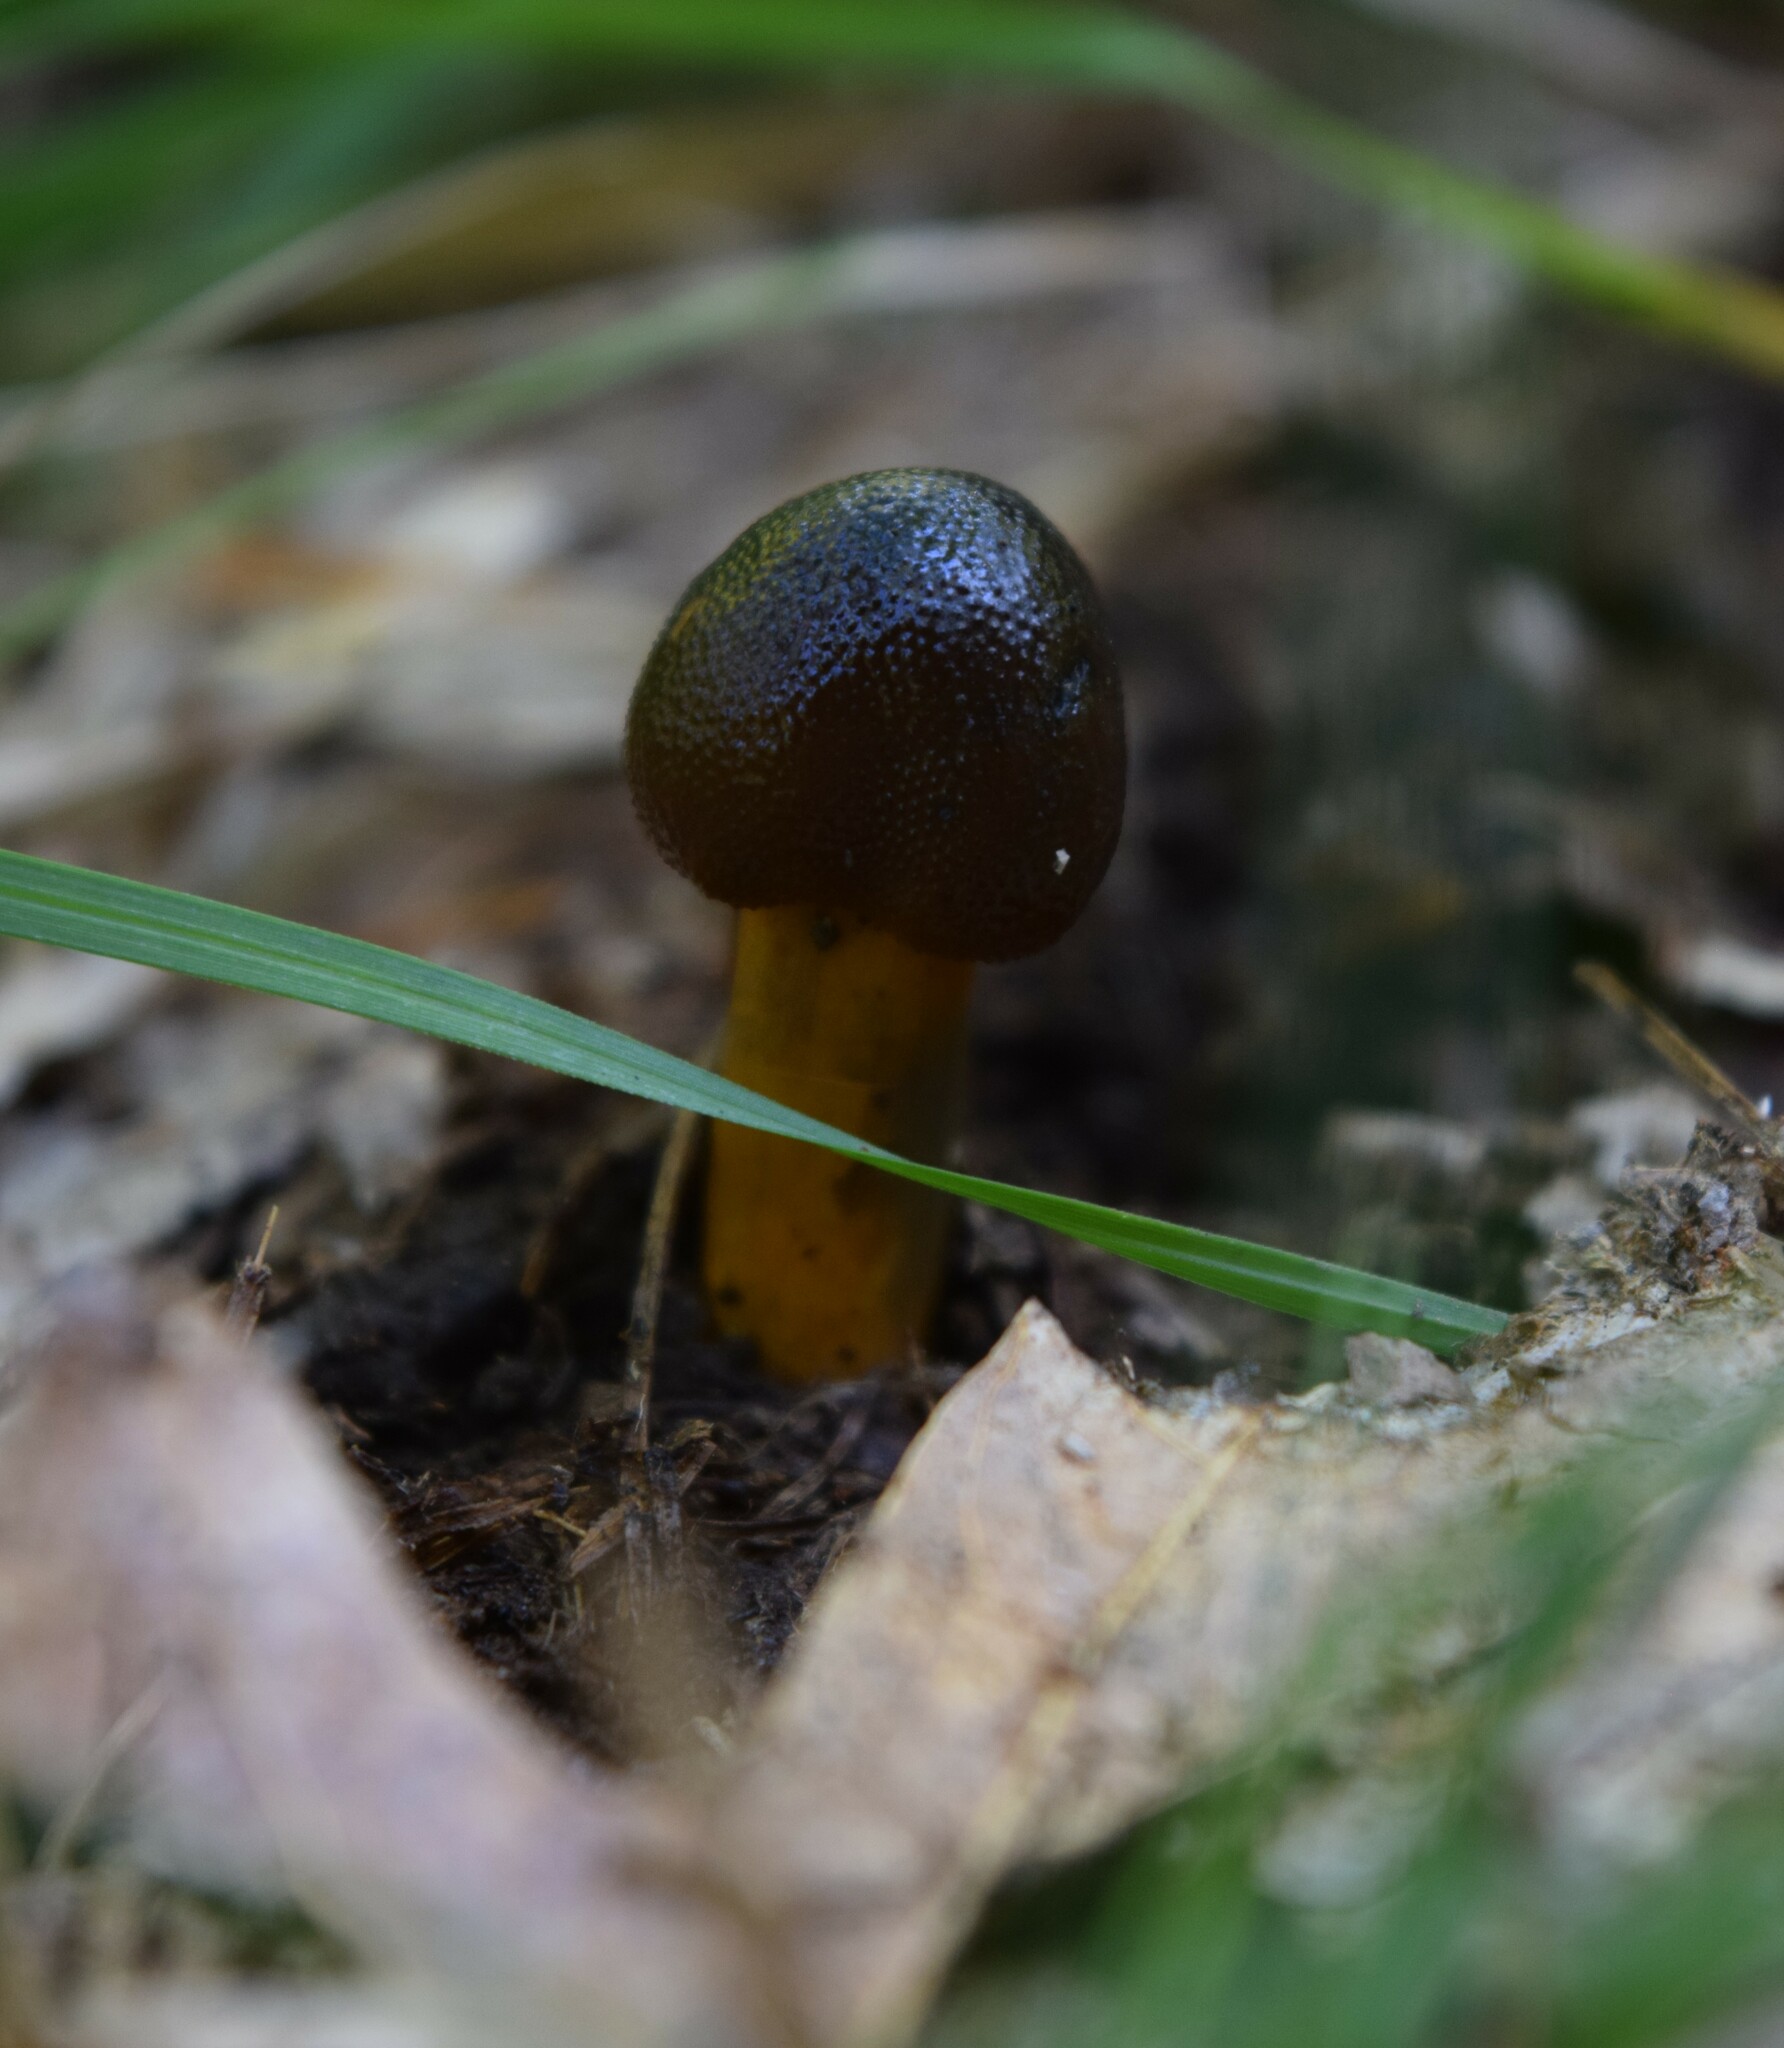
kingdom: Fungi
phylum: Ascomycota
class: Sordariomycetes
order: Hypocreales
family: Ophiocordycipitaceae
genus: Tolypocladium
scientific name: Tolypocladium capitatum
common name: Capitate truffleclub
